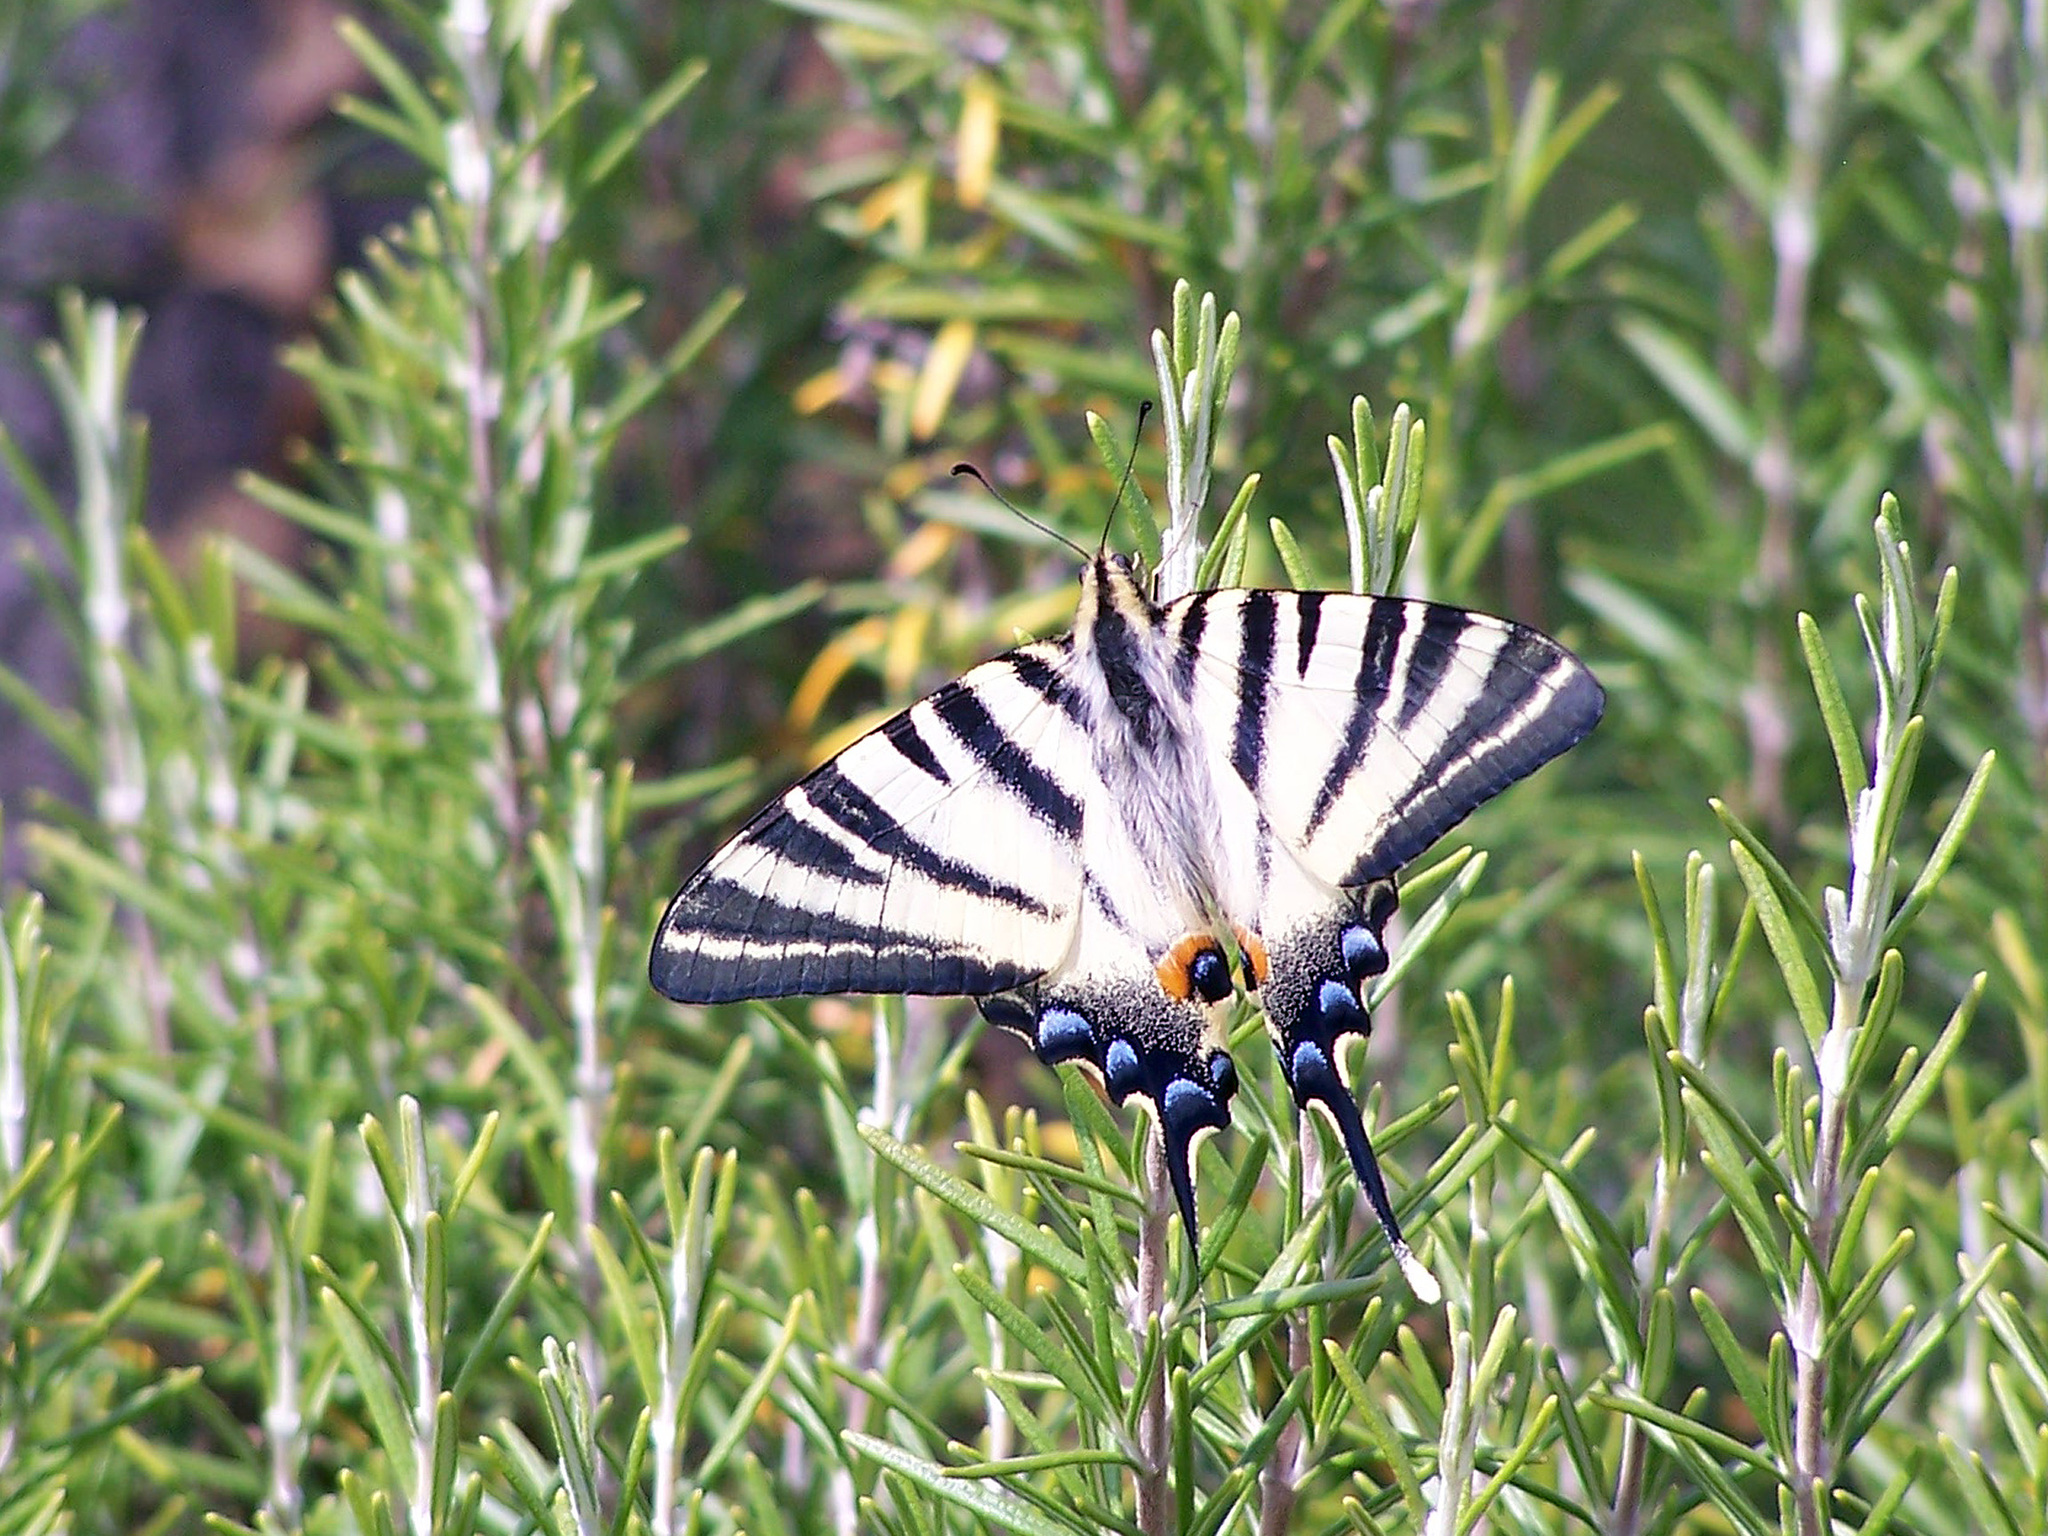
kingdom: Animalia
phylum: Arthropoda
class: Insecta
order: Lepidoptera
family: Papilionidae
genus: Iphiclides
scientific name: Iphiclides podalirius
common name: Scarce swallowtail
